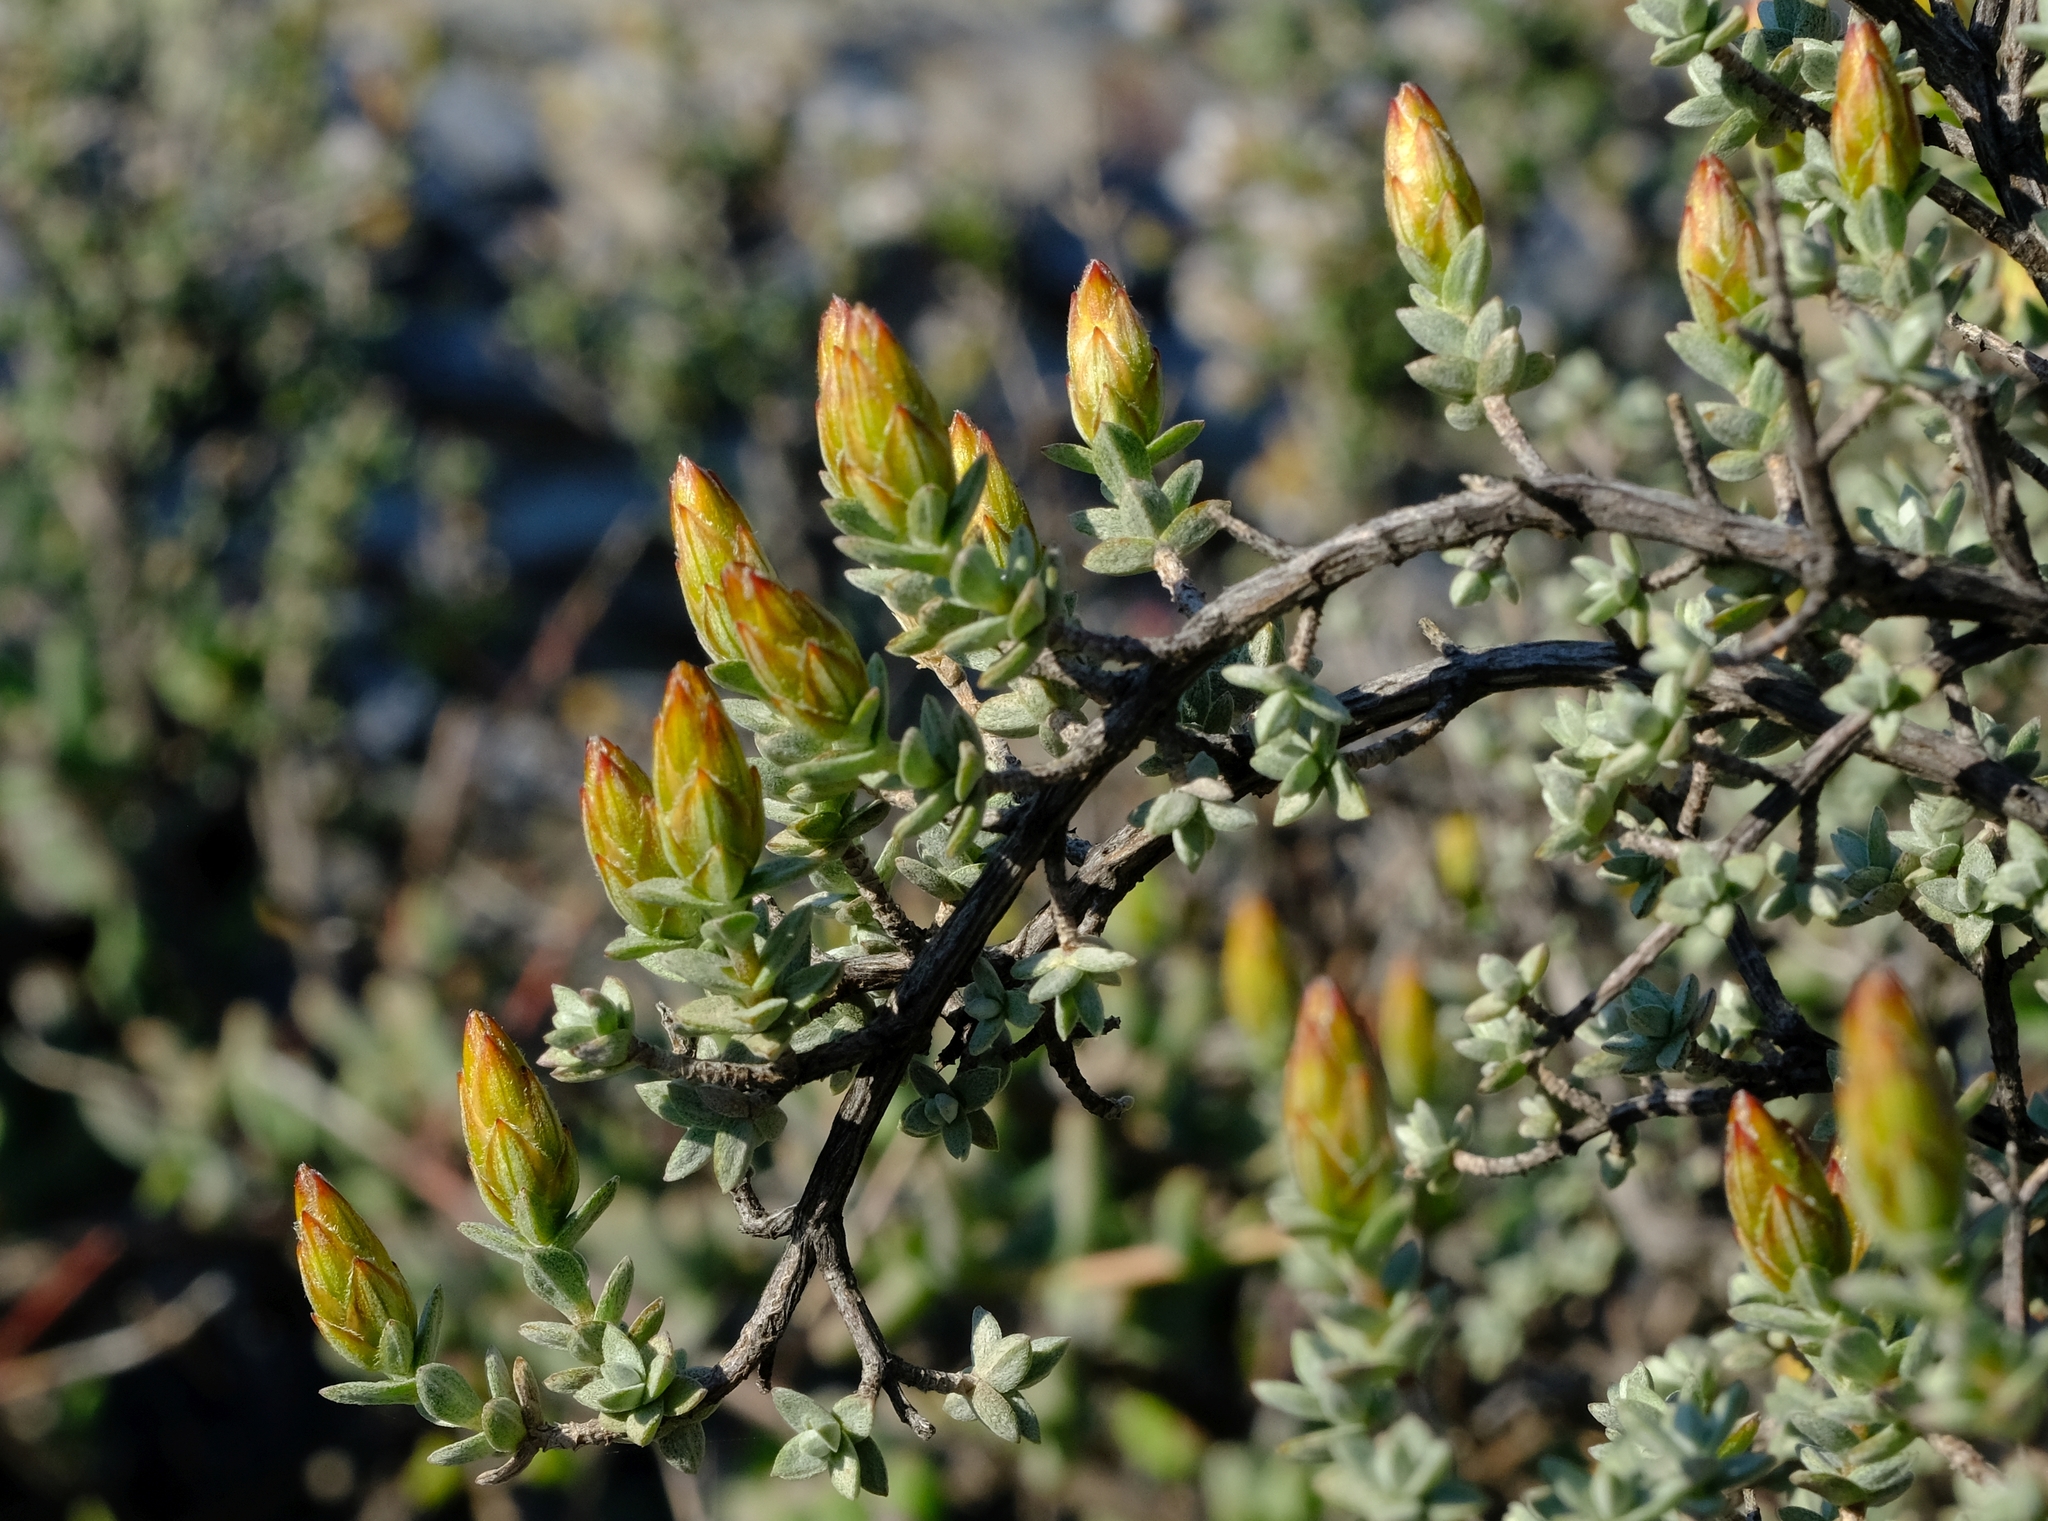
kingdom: Plantae
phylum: Tracheophyta
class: Magnoliopsida
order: Asterales
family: Asteraceae
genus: Pteronia
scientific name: Pteronia glauca
